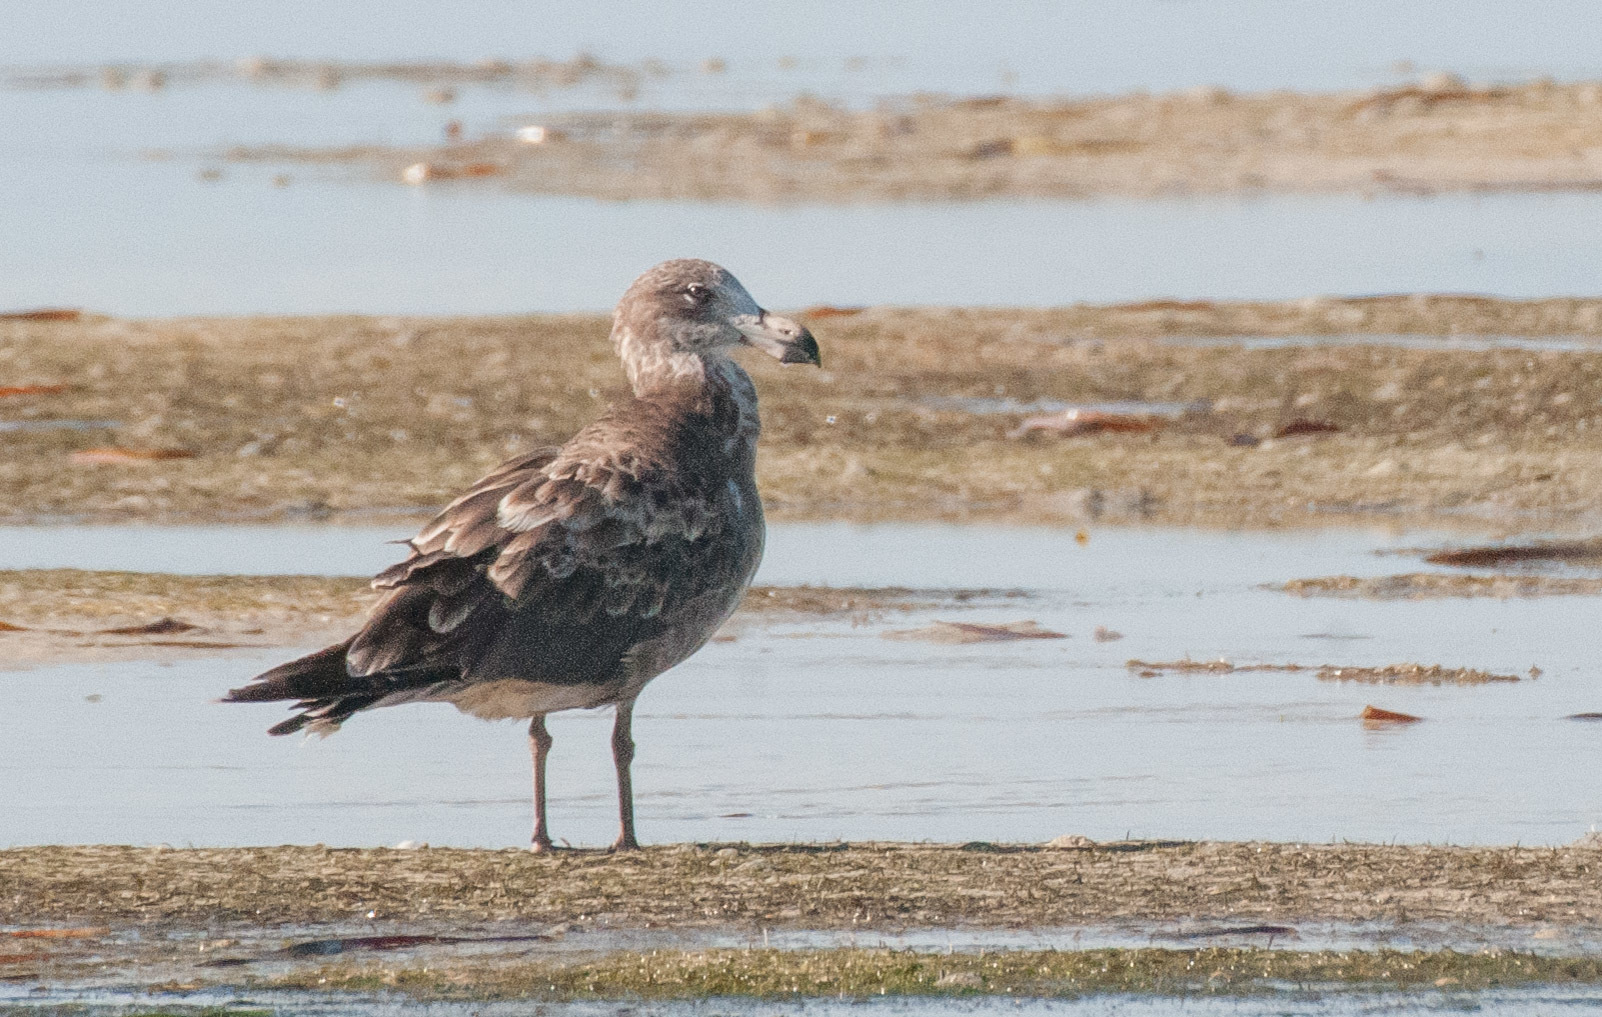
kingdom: Animalia
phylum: Chordata
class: Aves
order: Charadriiformes
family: Laridae
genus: Larus
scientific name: Larus pacificus
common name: Pacific gull
